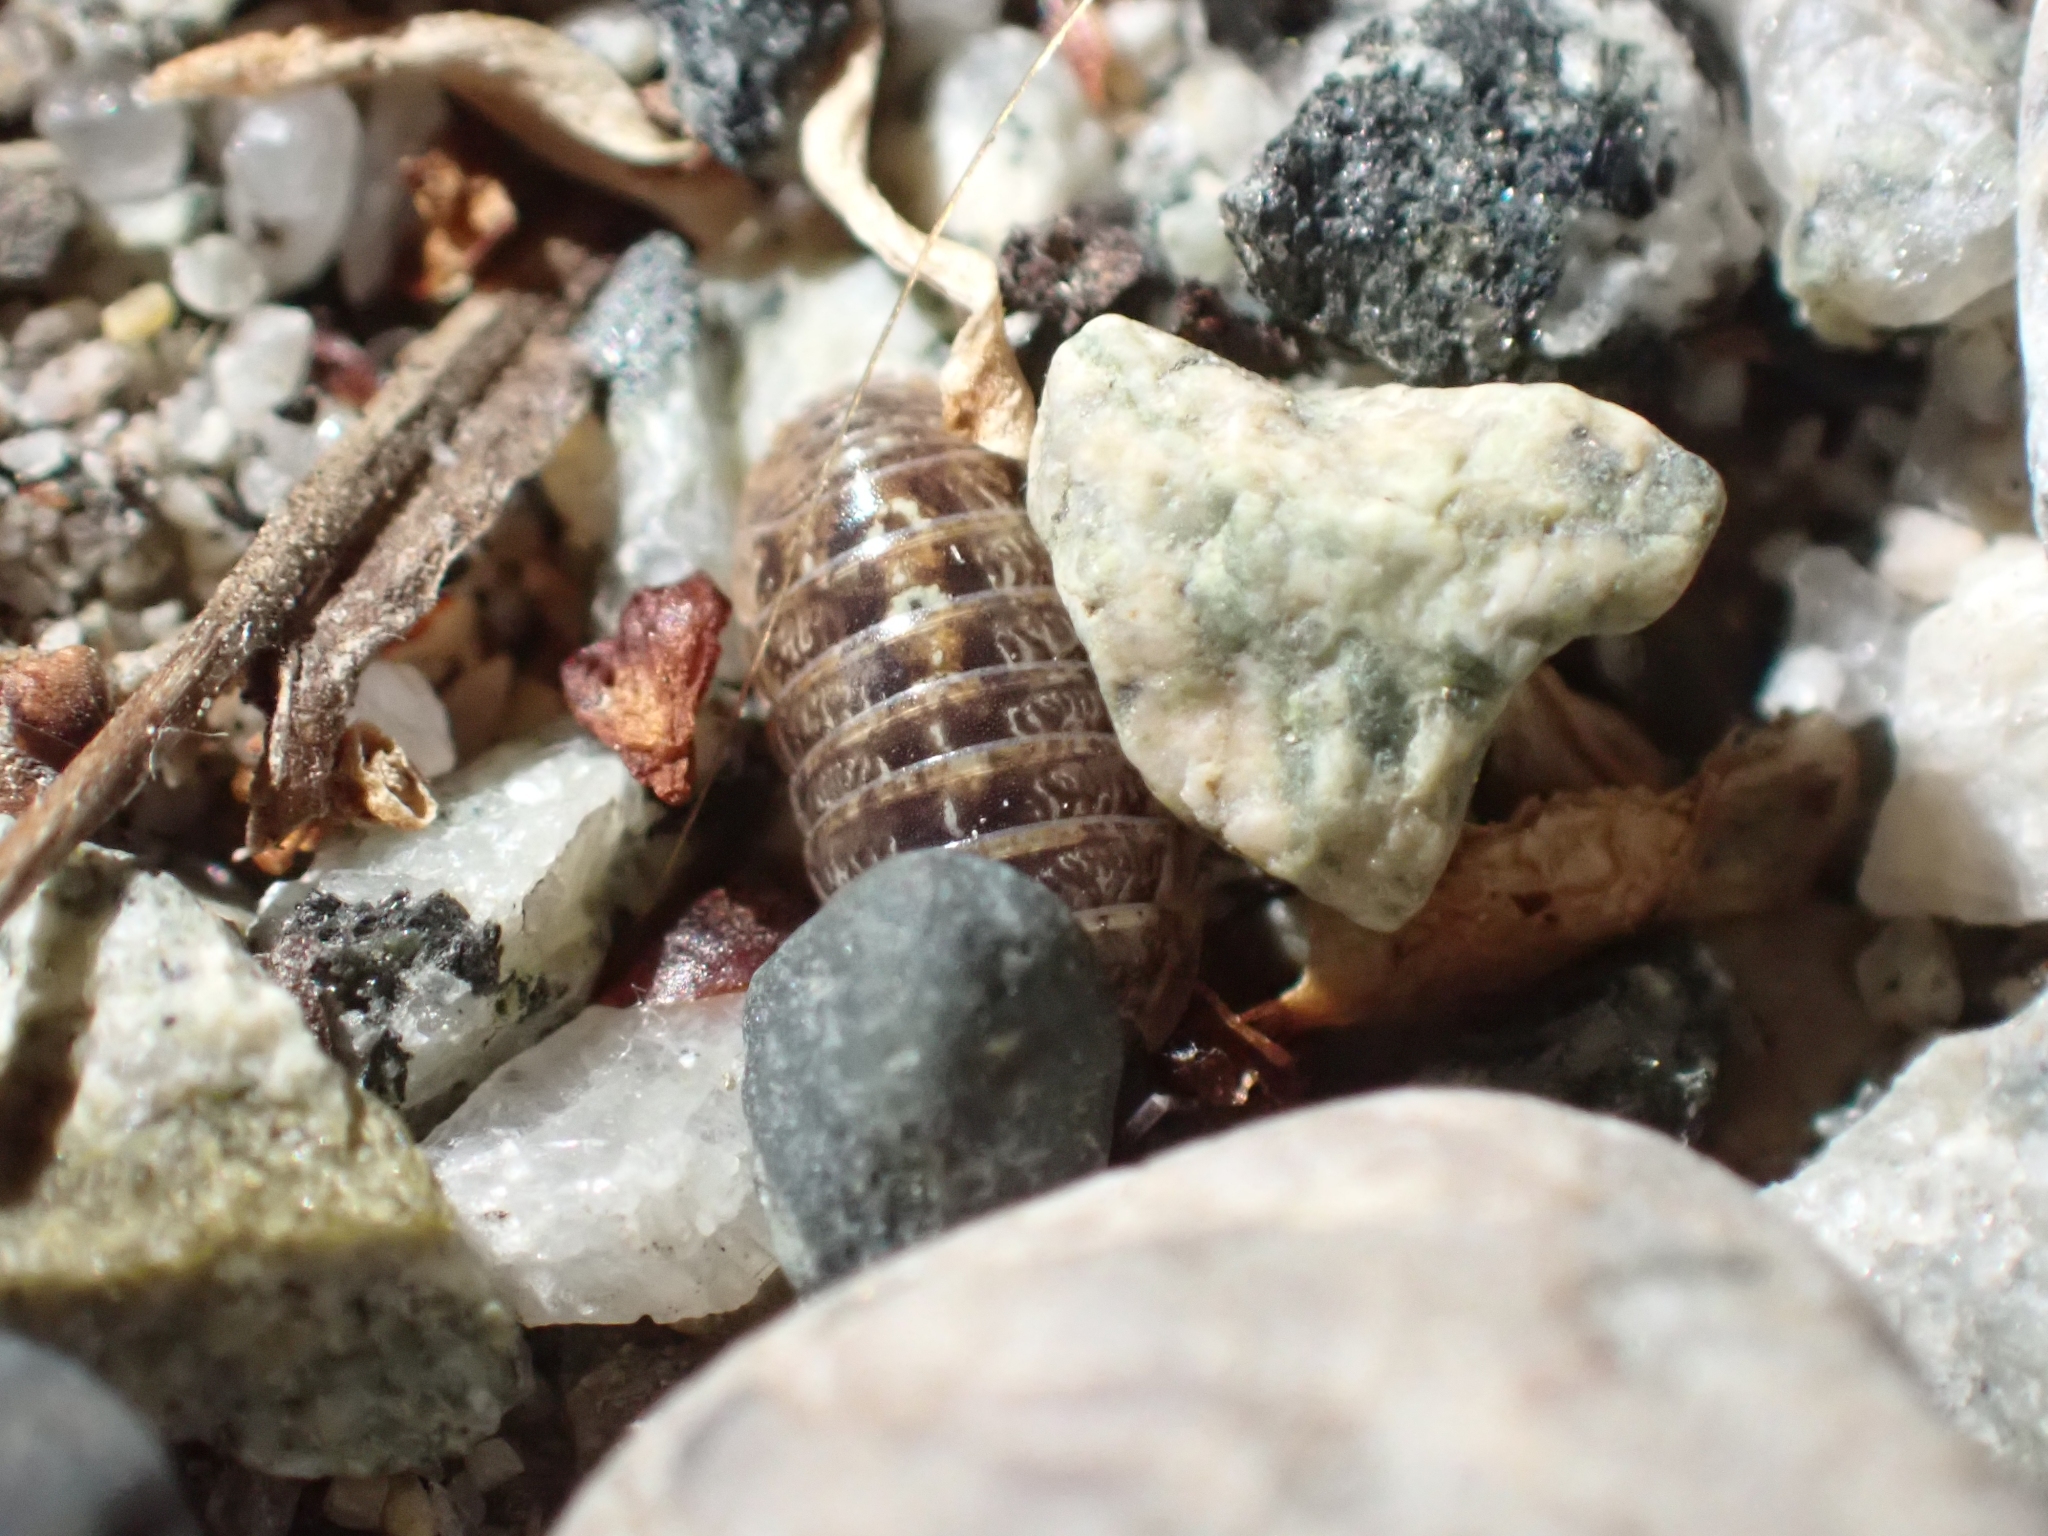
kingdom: Animalia
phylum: Arthropoda
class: Malacostraca
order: Isopoda
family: Armadillidiidae
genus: Armadillidium
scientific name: Armadillidium vulgare
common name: Common pill woodlouse
